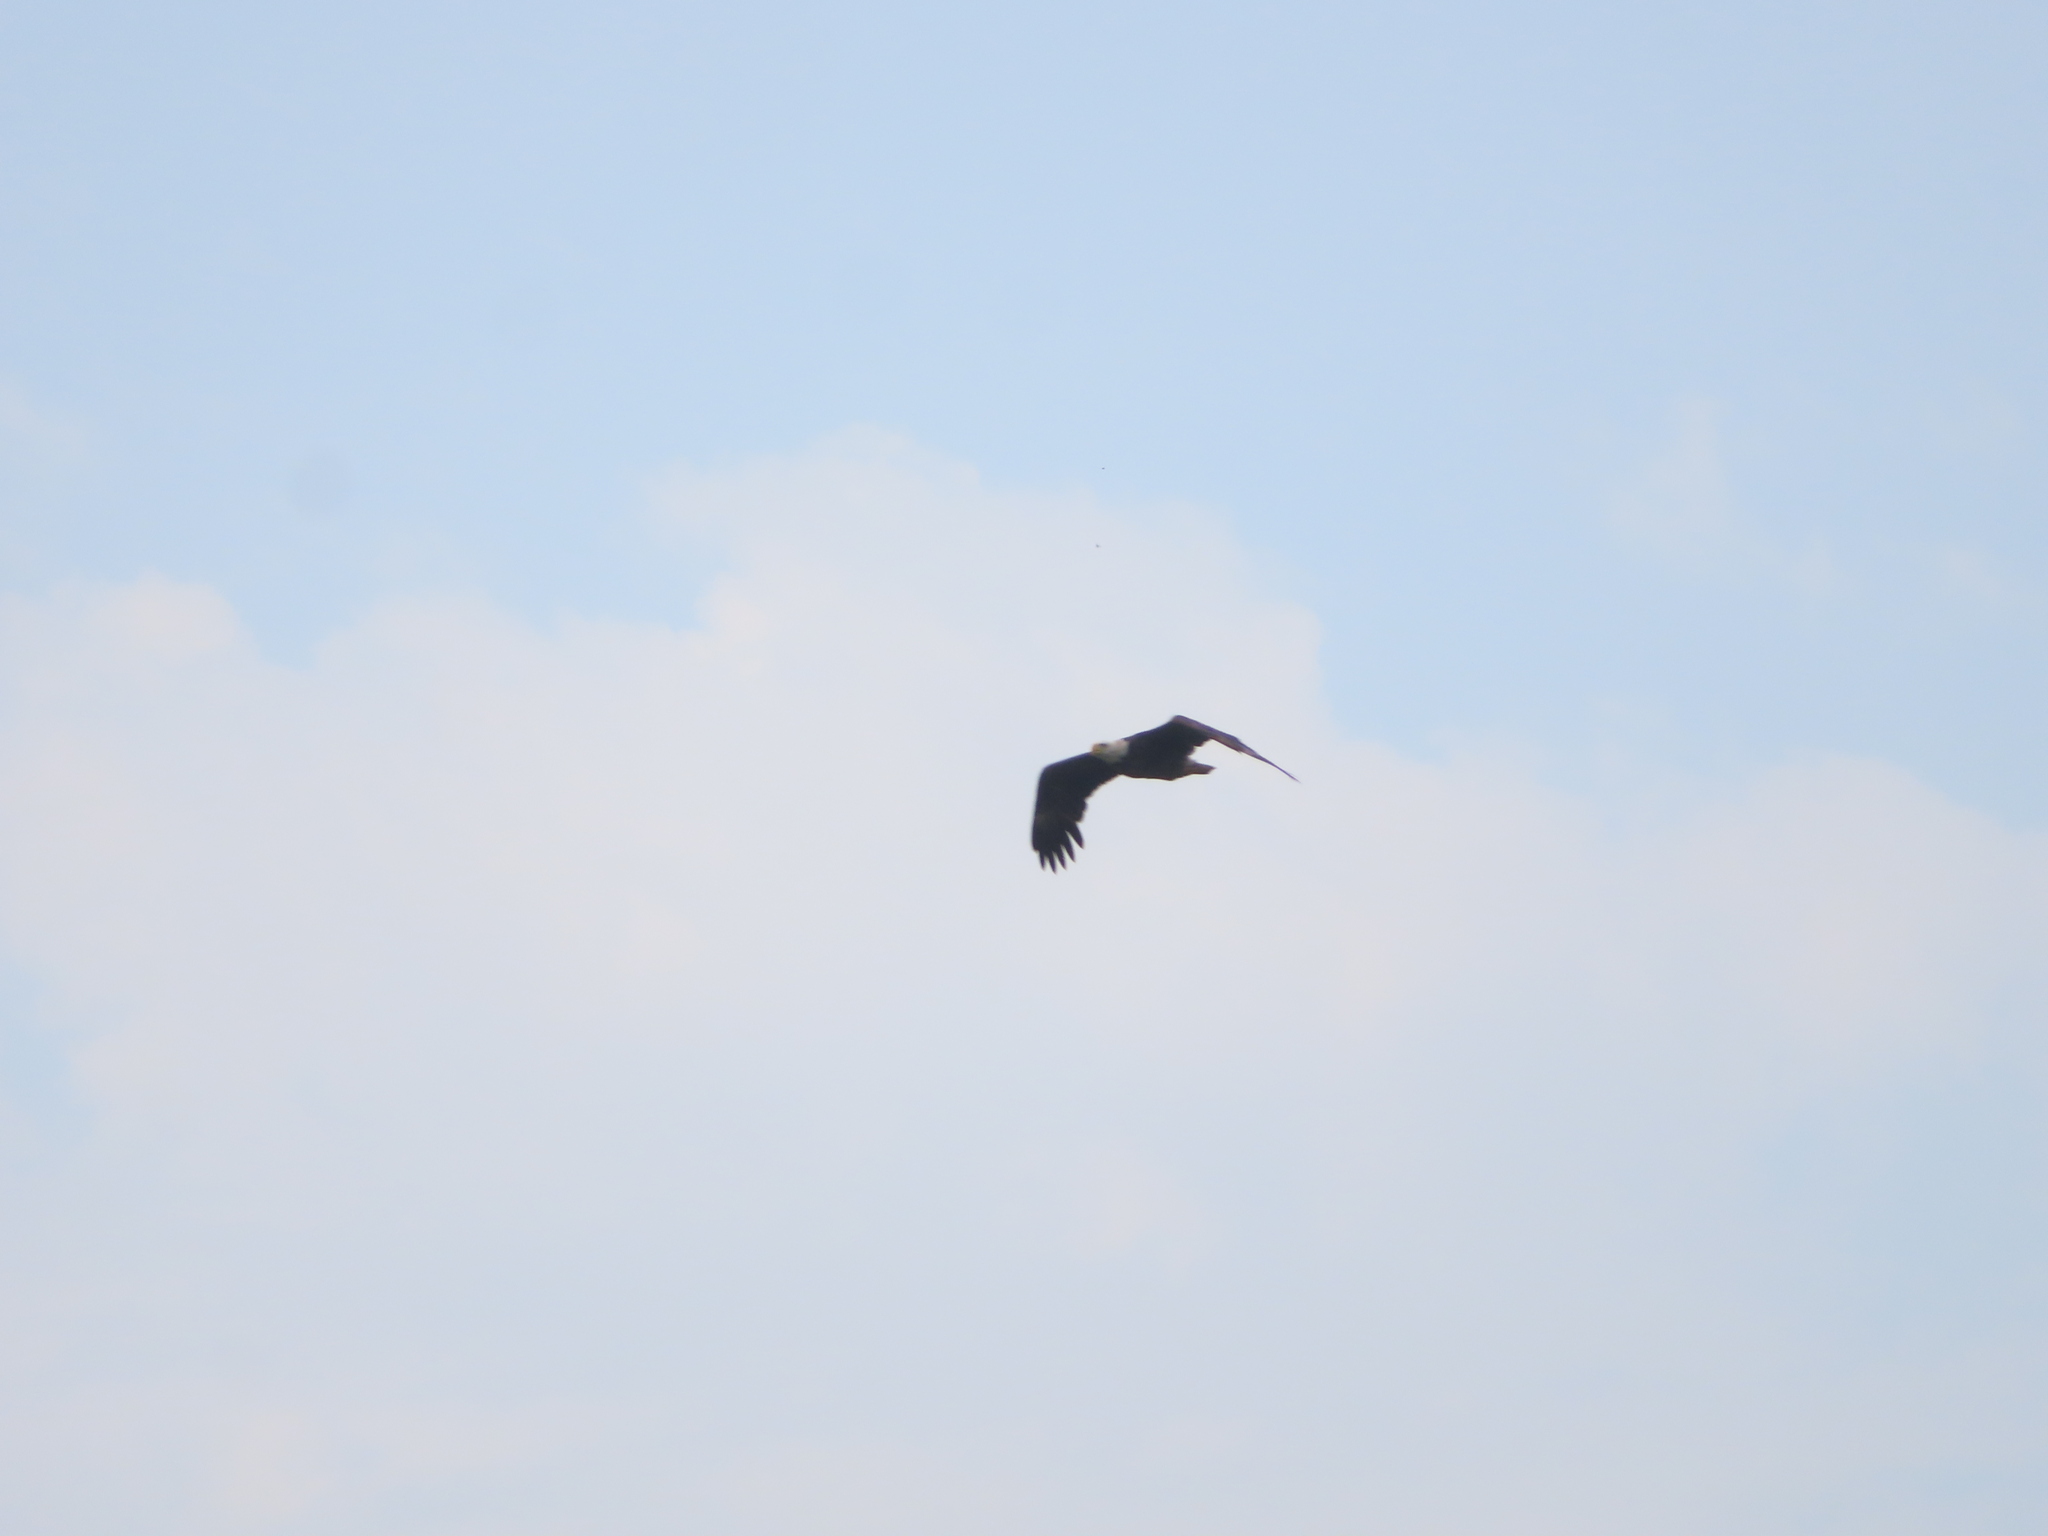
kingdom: Animalia
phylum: Chordata
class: Aves
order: Accipitriformes
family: Accipitridae
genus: Haliaeetus
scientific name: Haliaeetus leucocephalus
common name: Bald eagle
